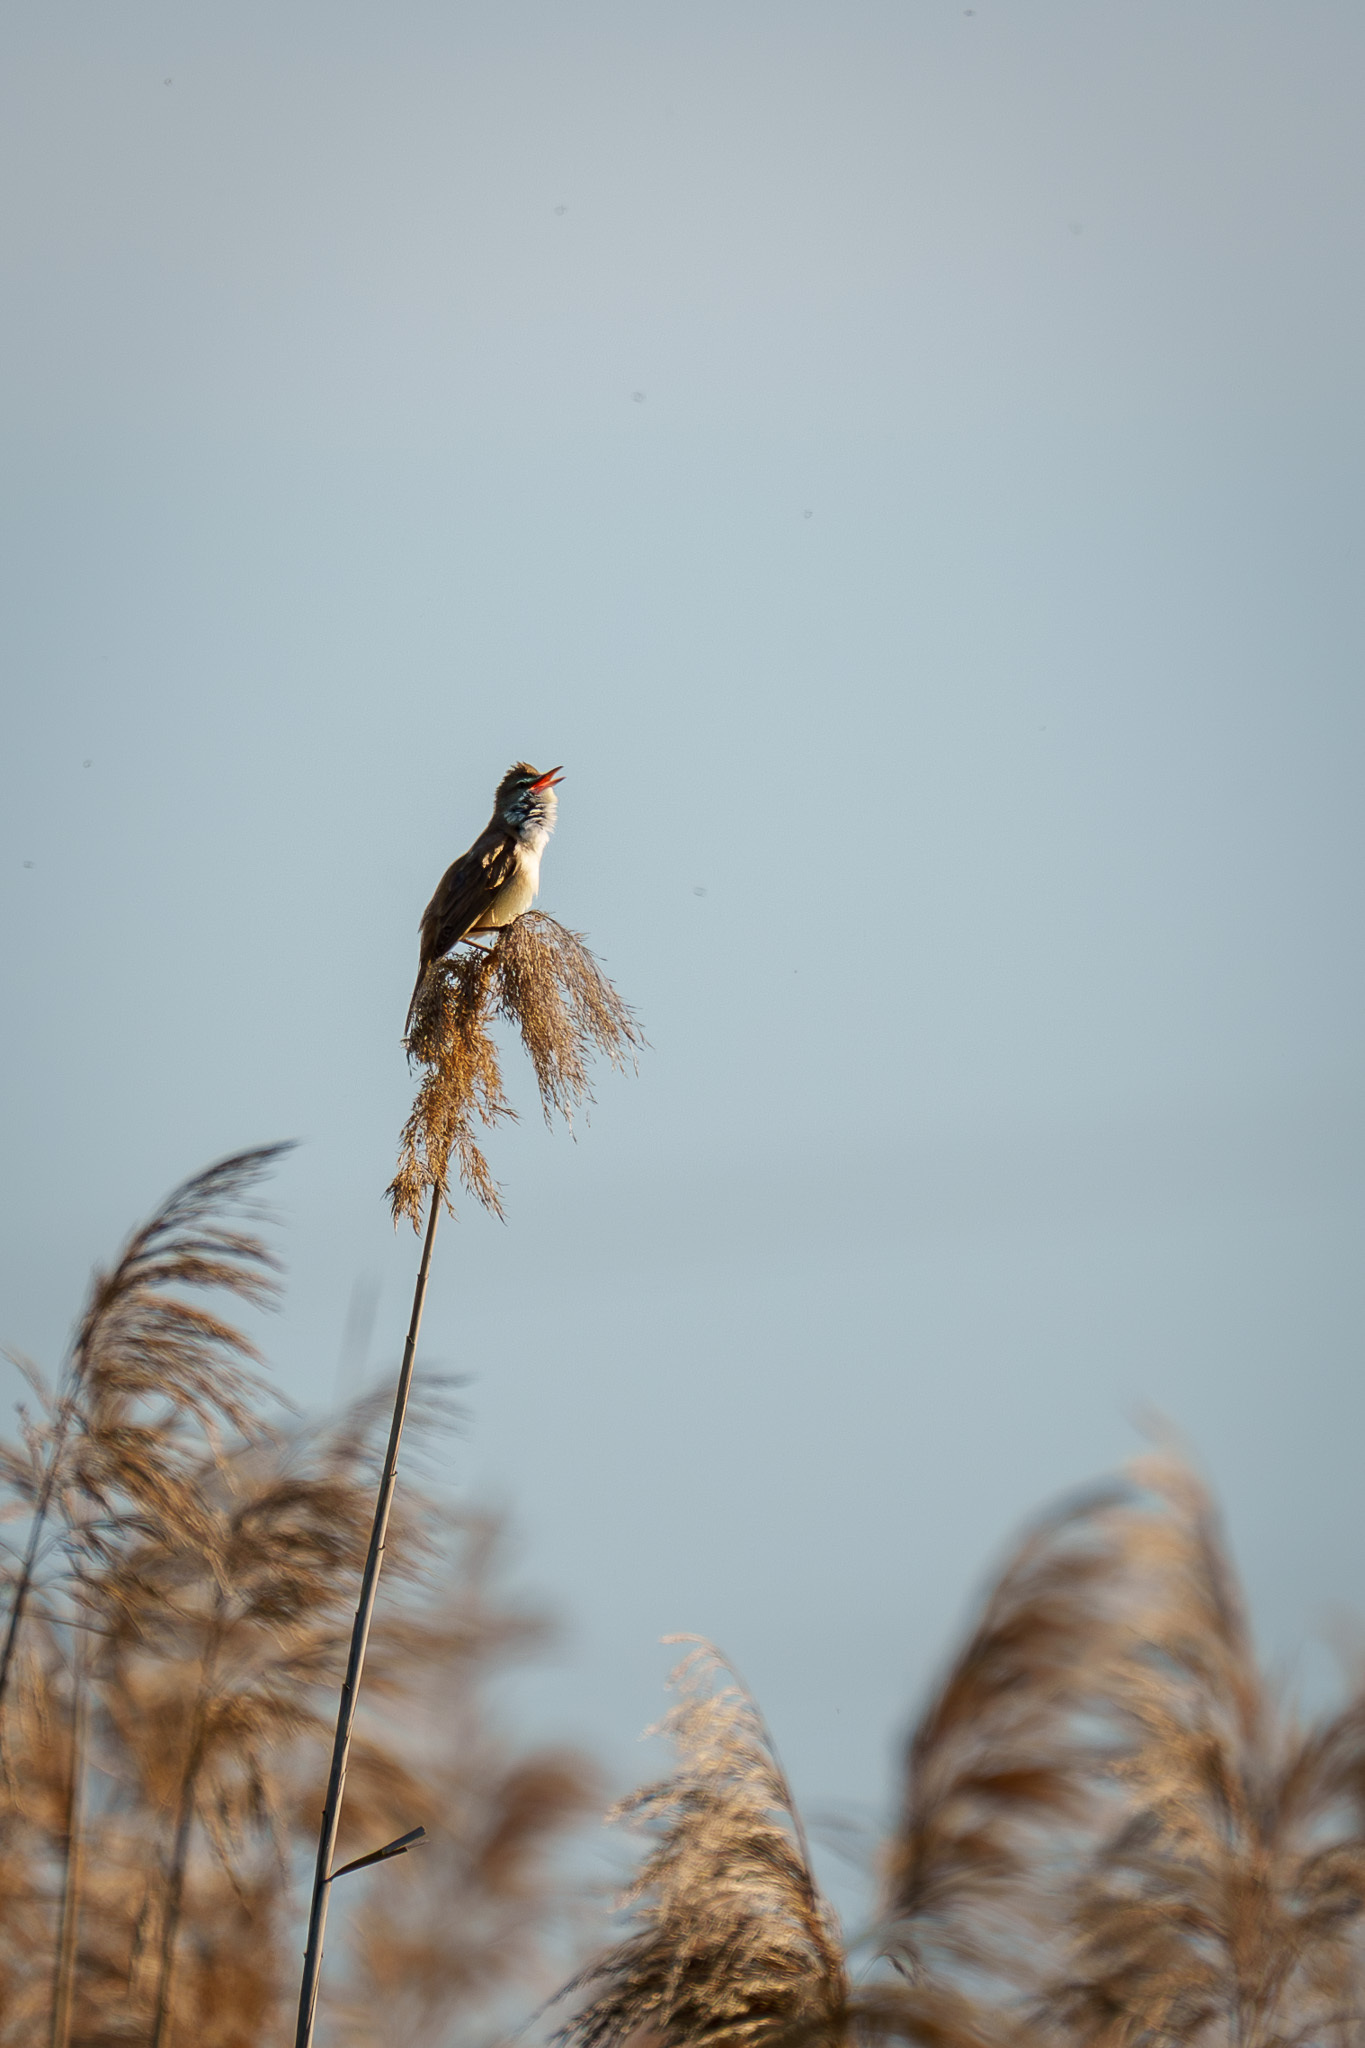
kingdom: Animalia
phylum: Chordata
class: Aves
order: Passeriformes
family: Acrocephalidae
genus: Acrocephalus
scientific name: Acrocephalus arundinaceus
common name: Great reed warbler
